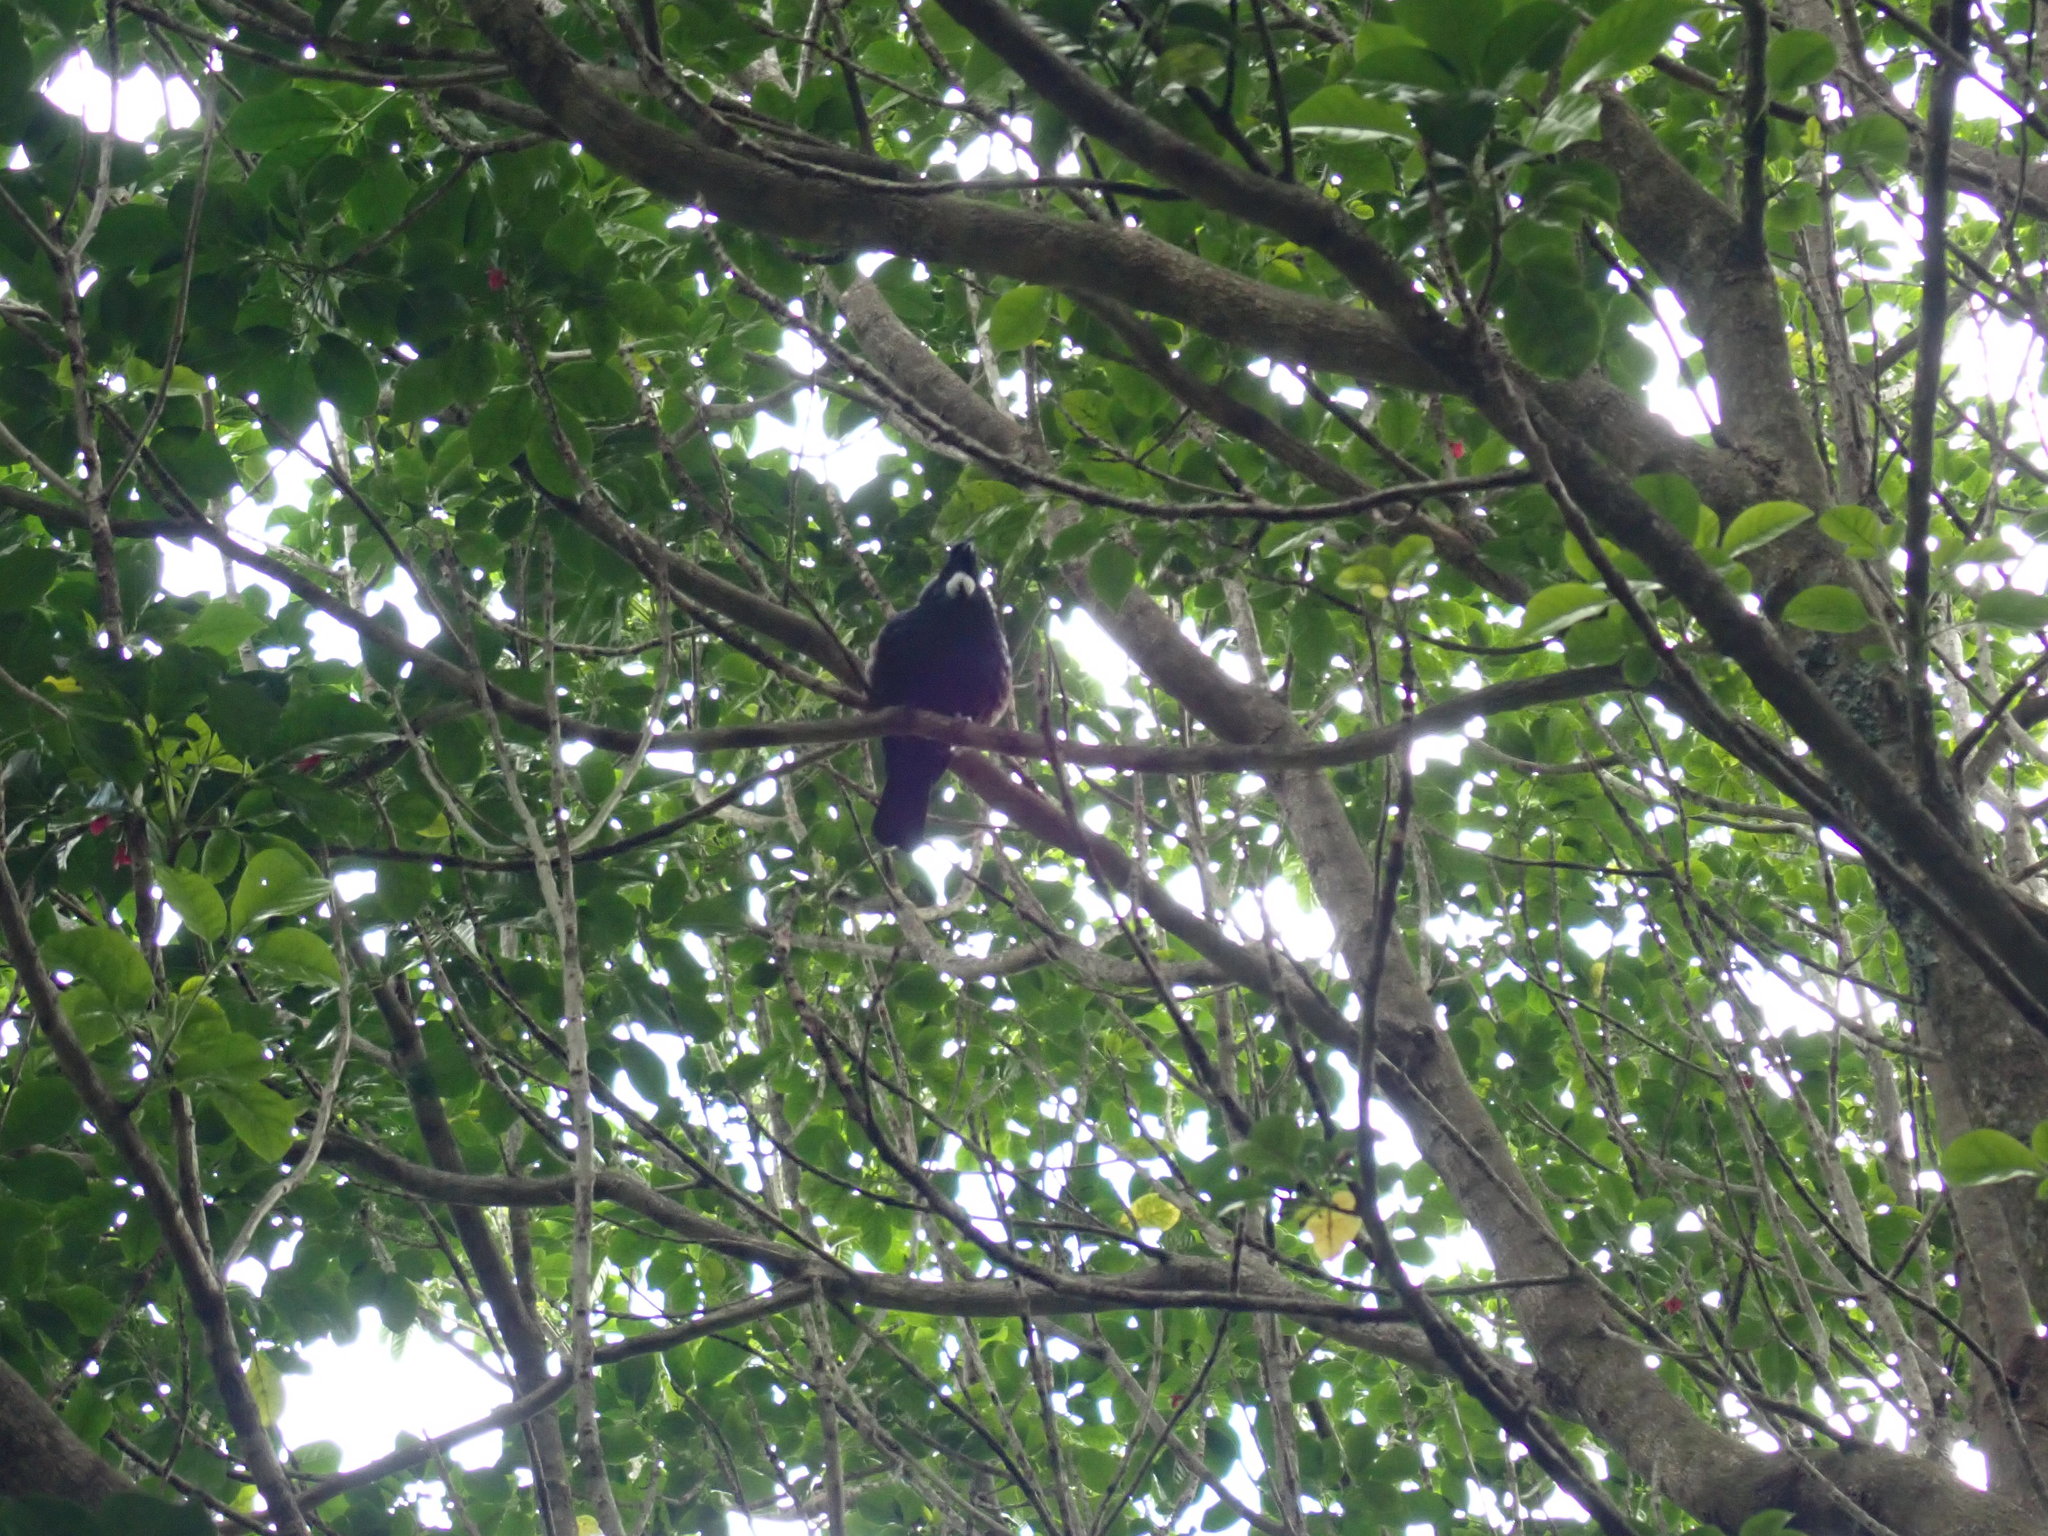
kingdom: Animalia
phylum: Chordata
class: Aves
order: Passeriformes
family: Meliphagidae
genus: Prosthemadera
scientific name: Prosthemadera novaeseelandiae
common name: Tui
